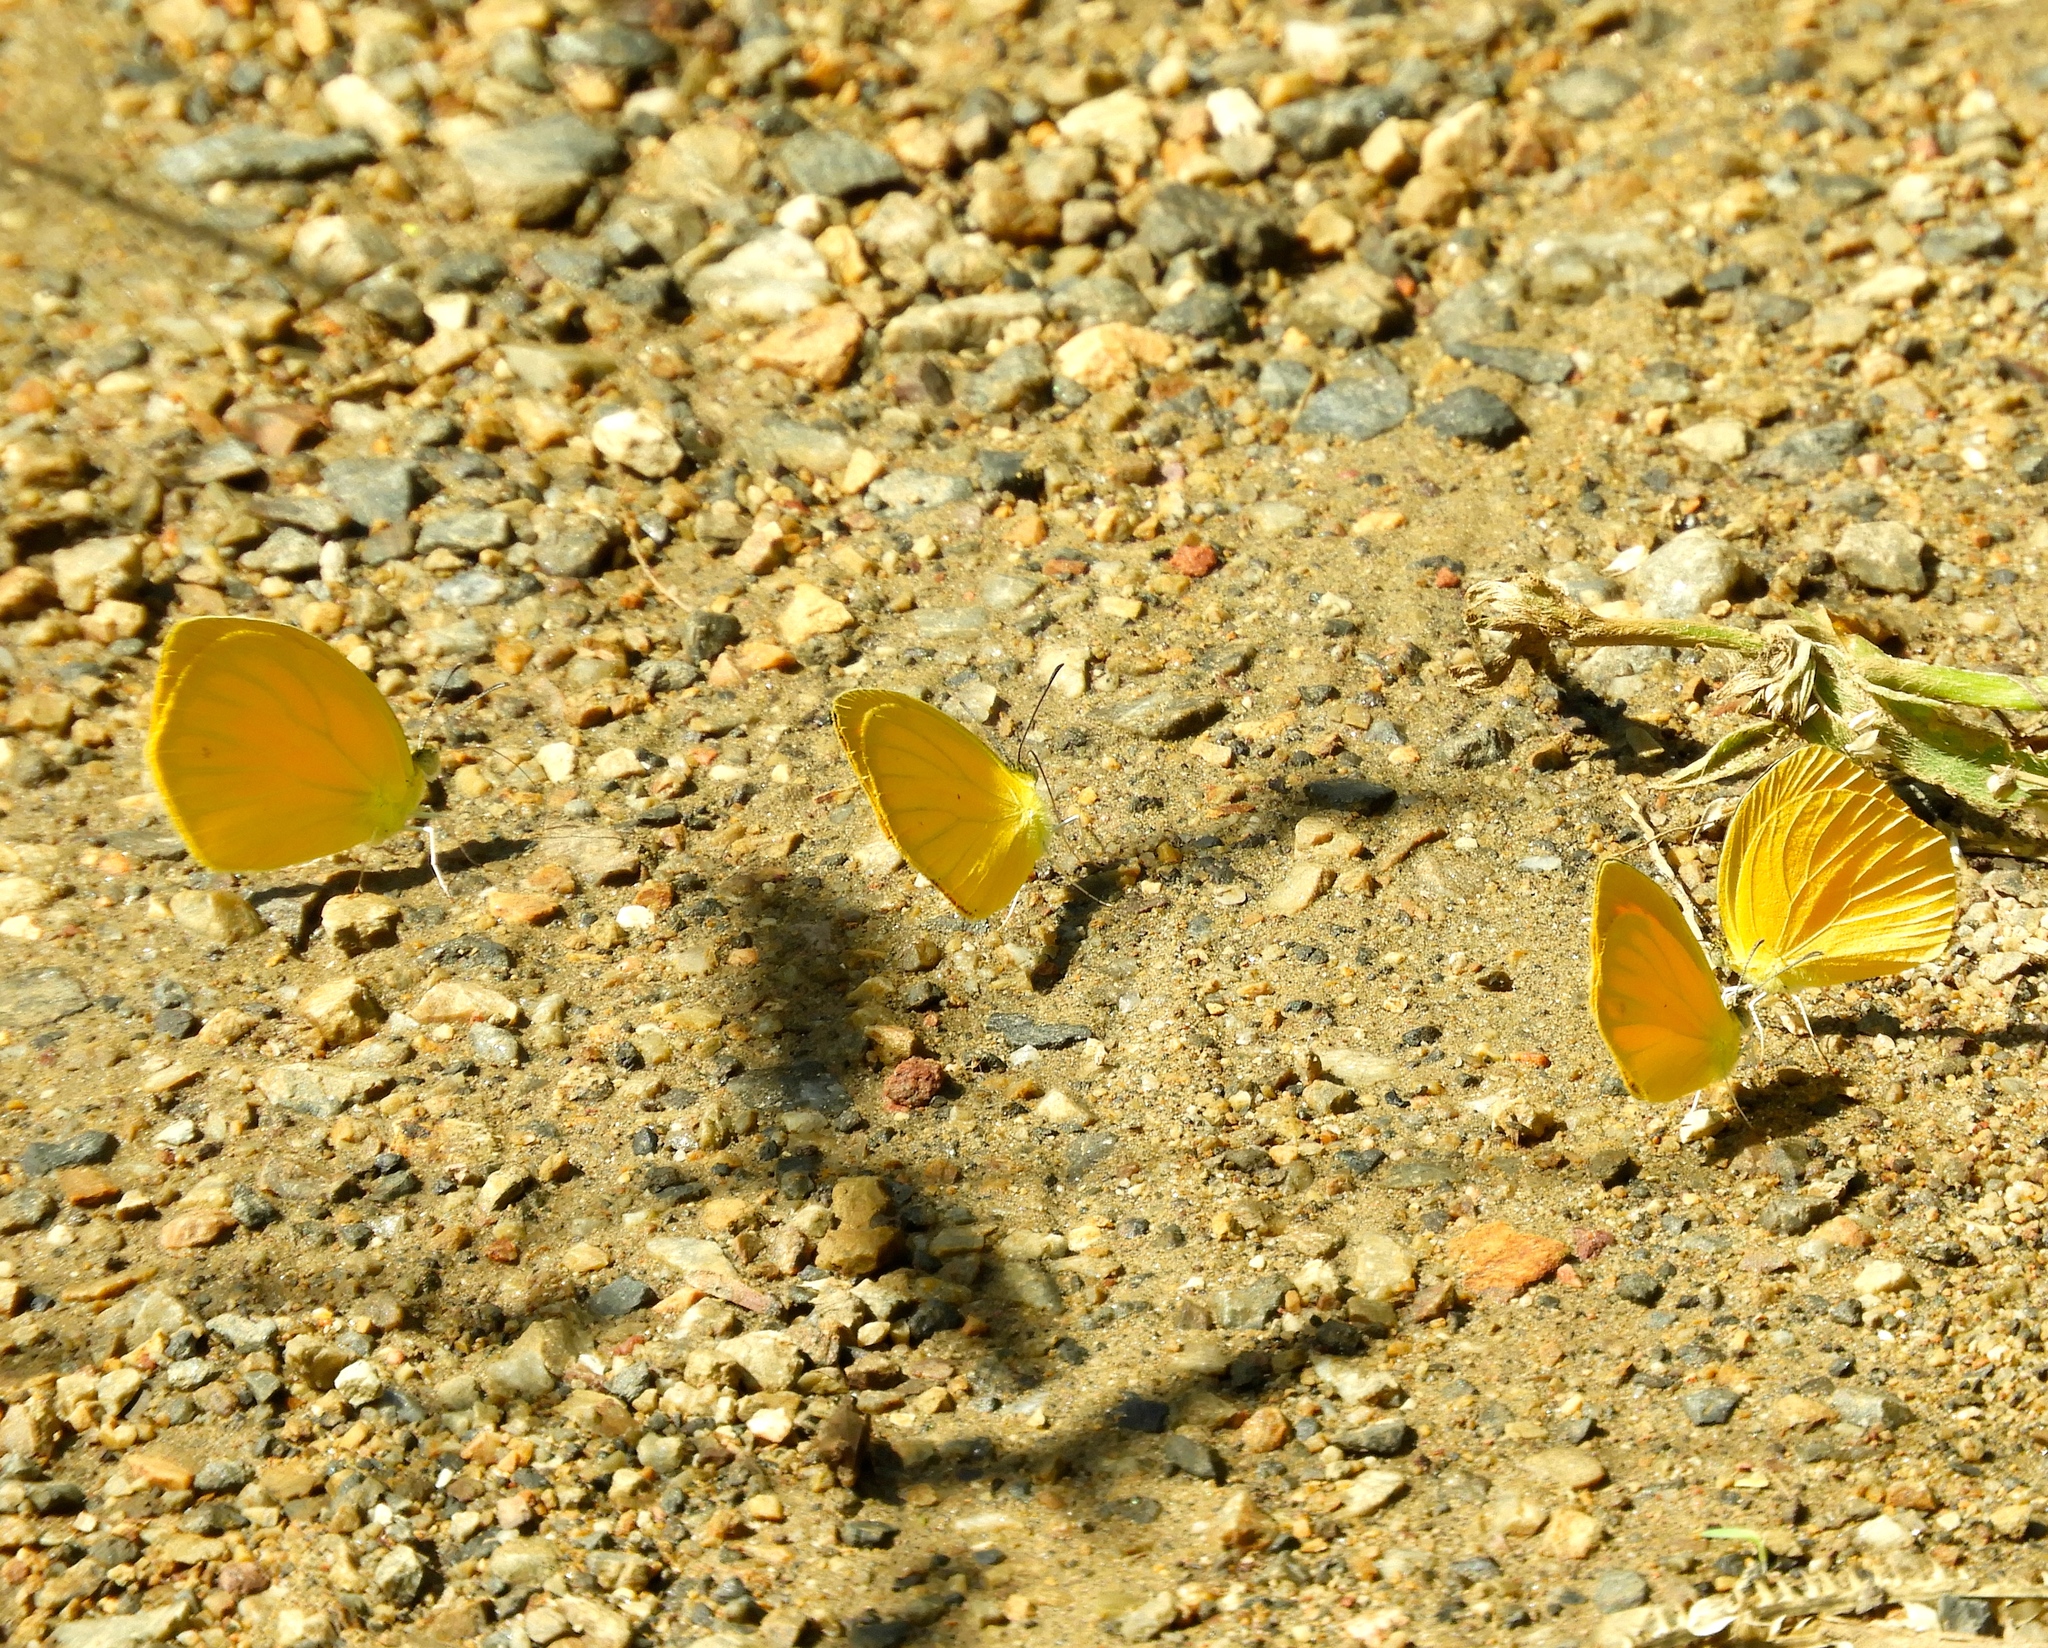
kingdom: Animalia
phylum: Arthropoda
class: Insecta
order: Lepidoptera
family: Pieridae
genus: Pyrisitia
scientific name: Pyrisitia
